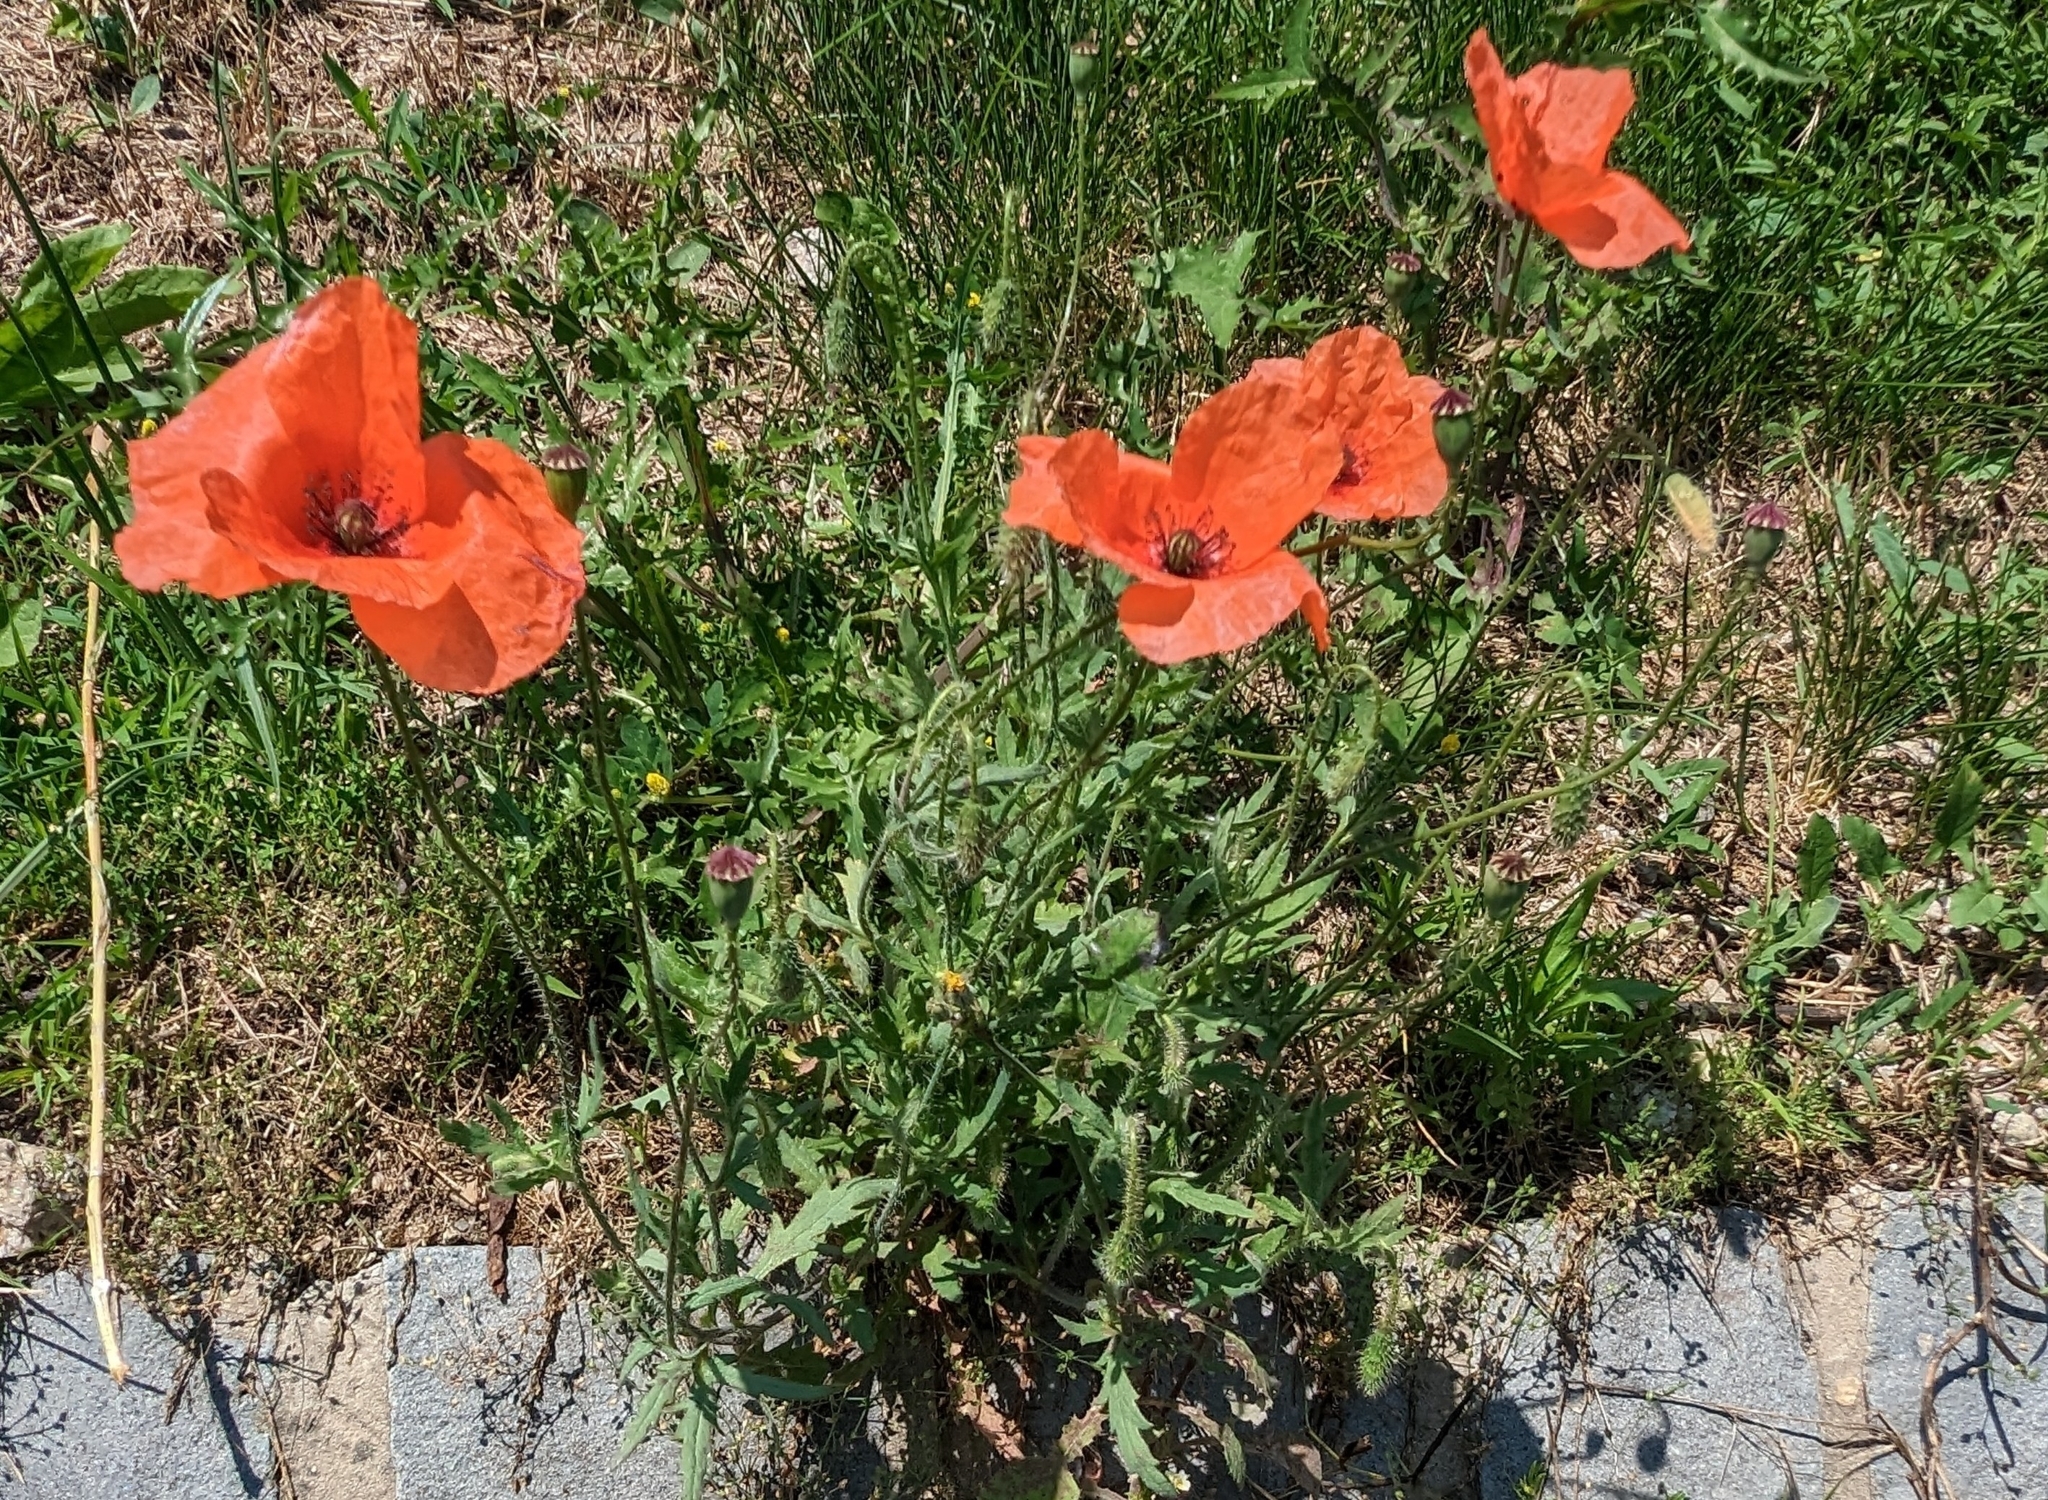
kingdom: Plantae
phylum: Tracheophyta
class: Magnoliopsida
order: Ranunculales
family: Papaveraceae
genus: Papaver
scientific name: Papaver rhoeas
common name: Corn poppy
